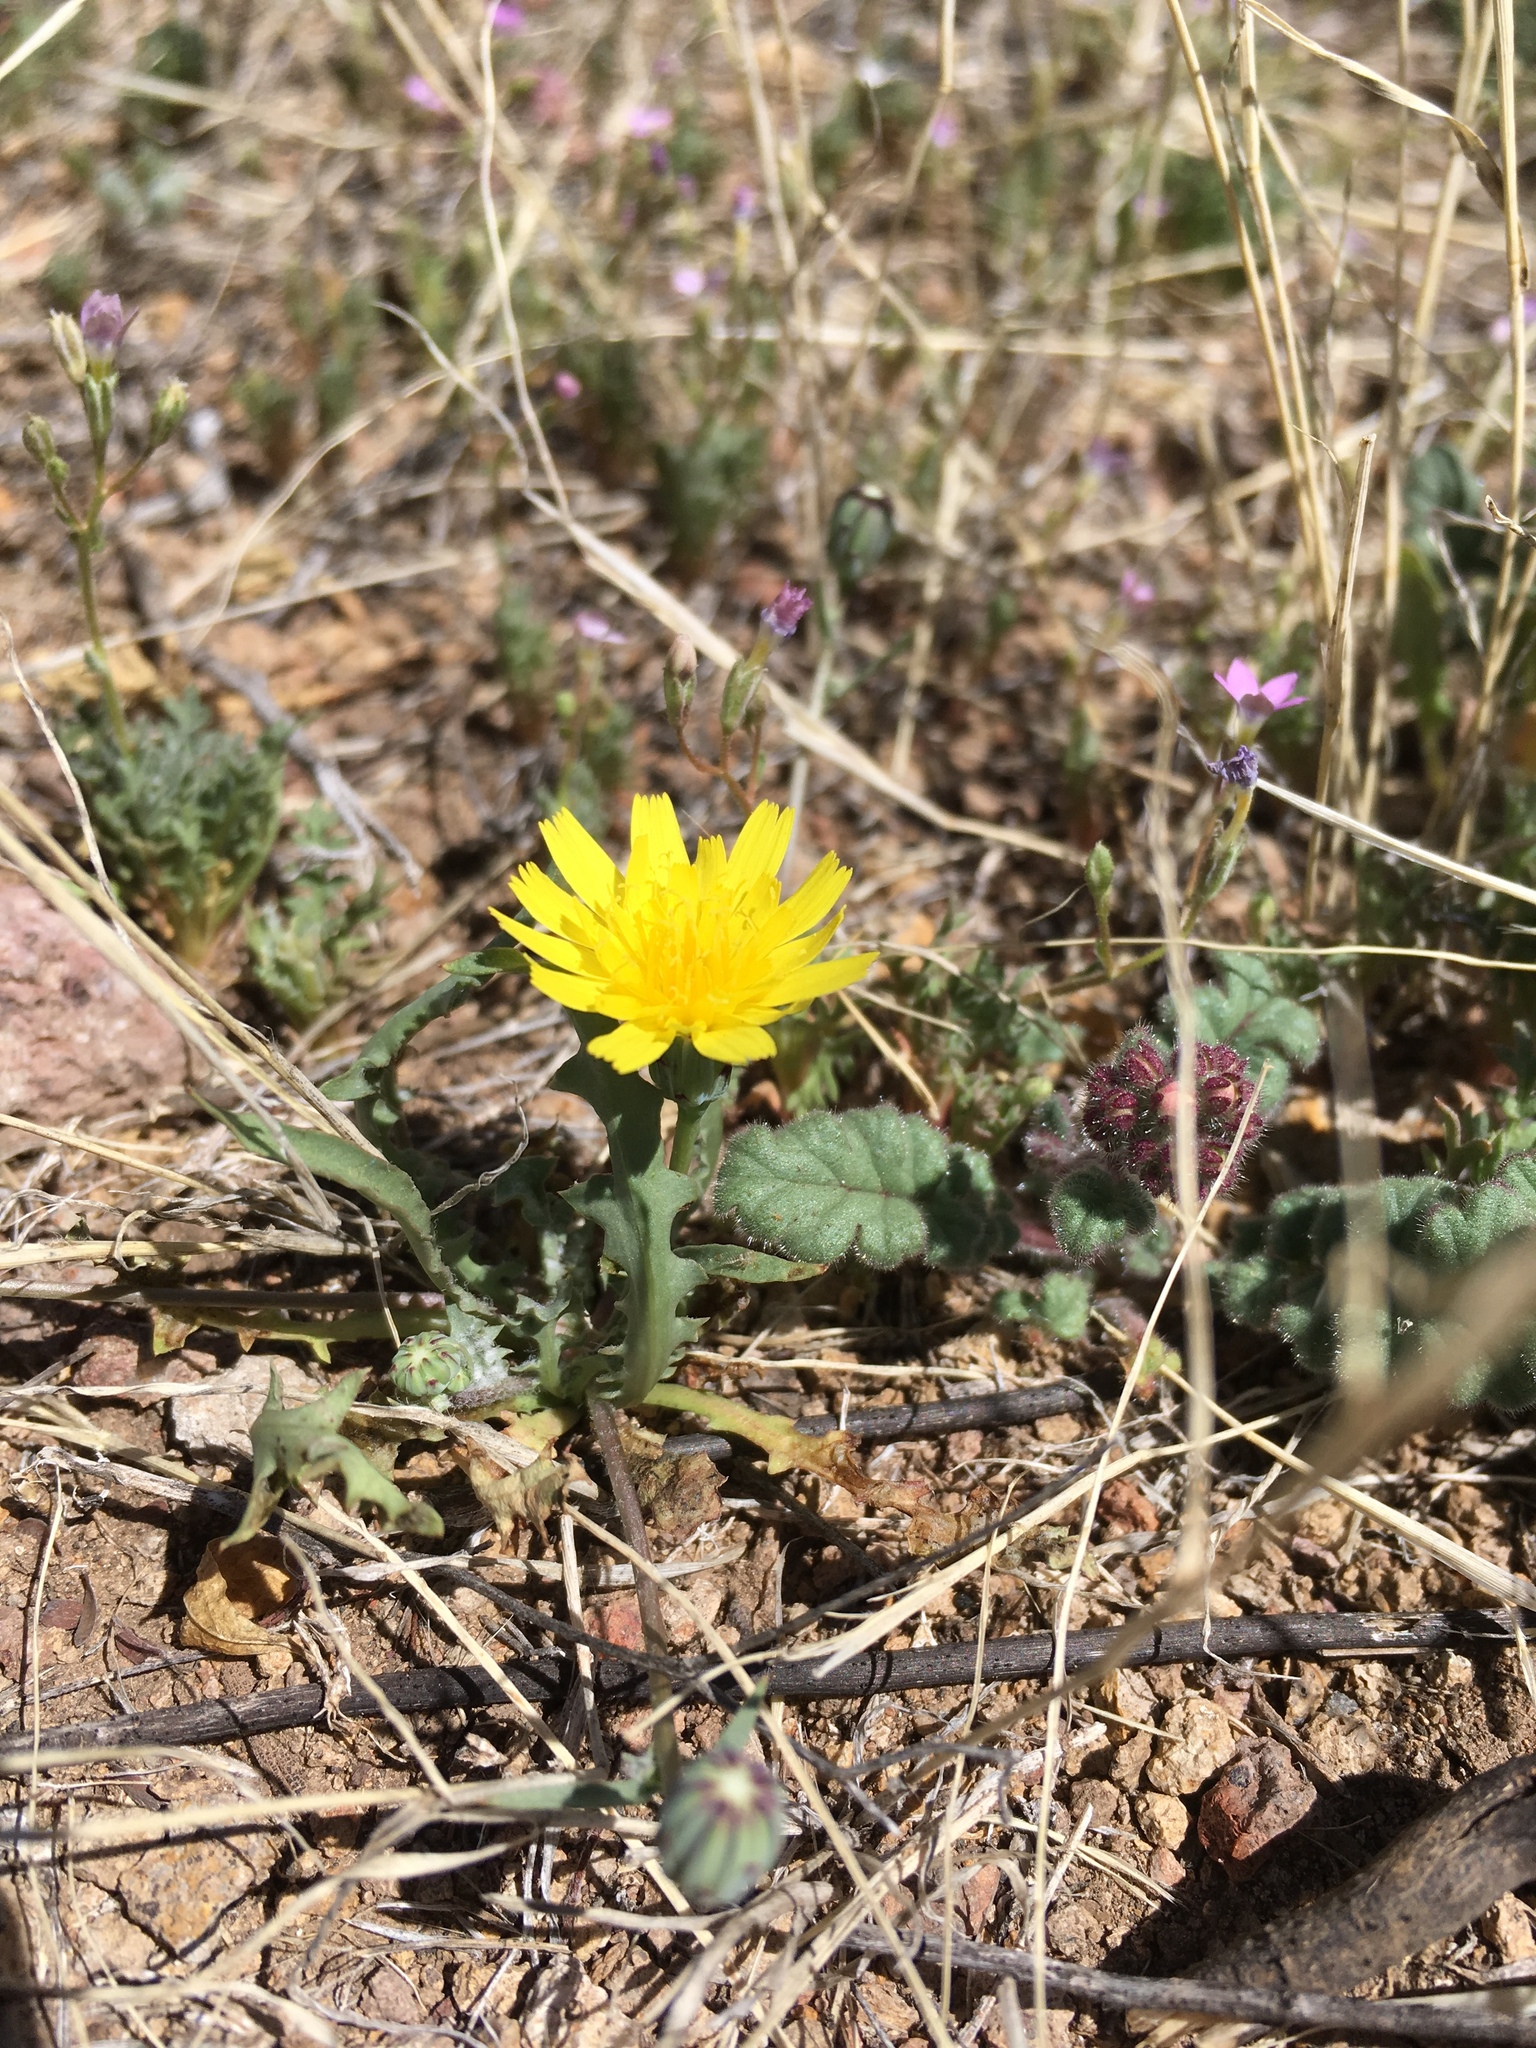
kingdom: Plantae
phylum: Tracheophyta
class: Magnoliopsida
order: Asterales
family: Asteraceae
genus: Malacothrix
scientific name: Malacothrix fendleri
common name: Fendler's desert-dandelion
